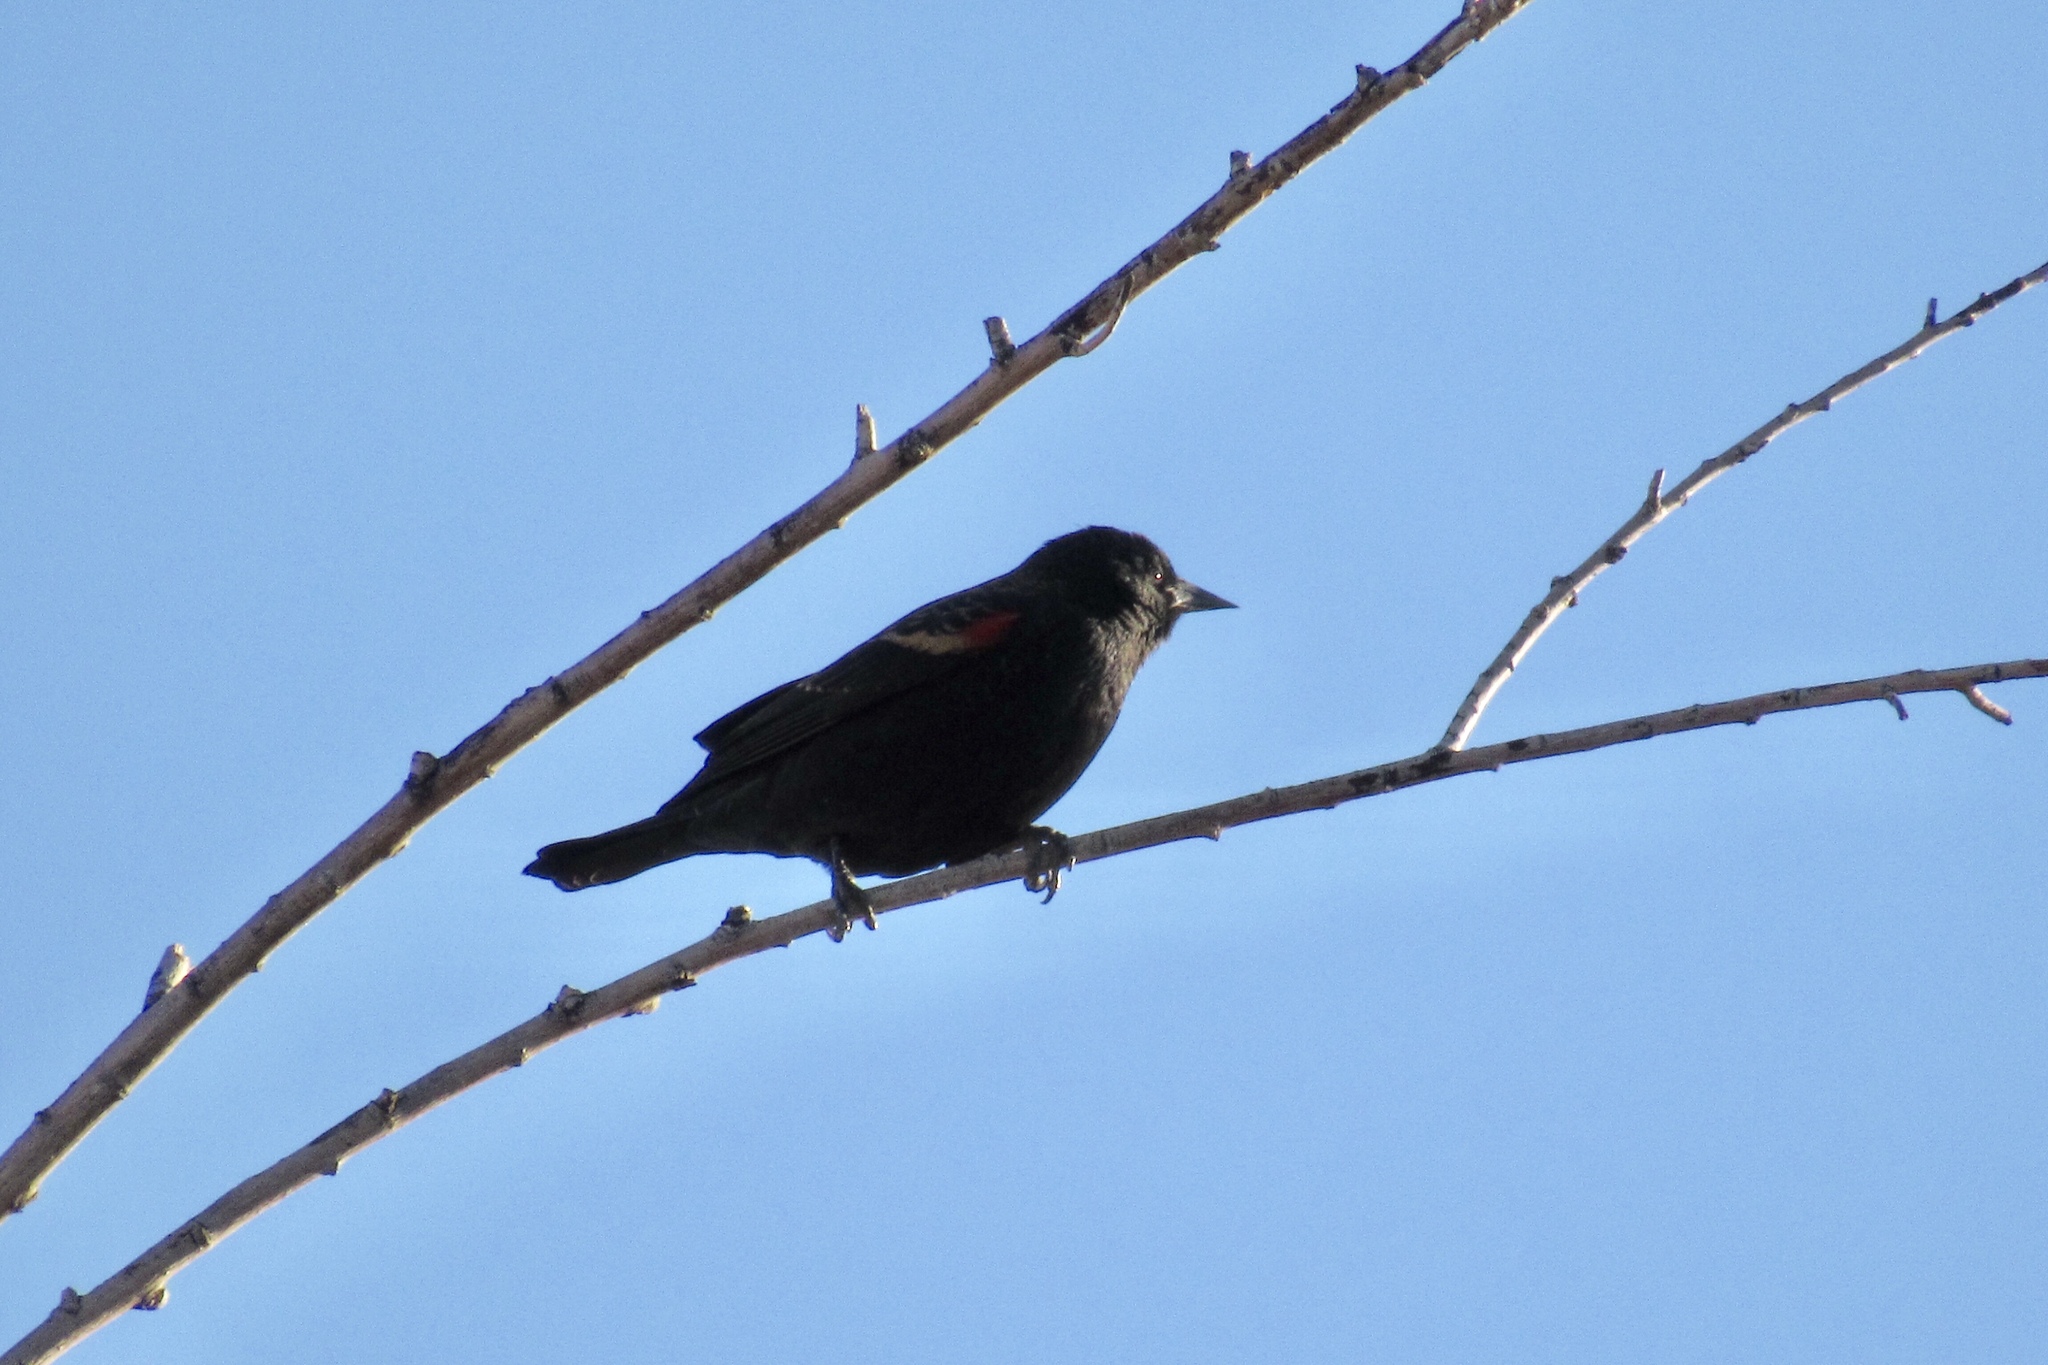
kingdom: Animalia
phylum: Chordata
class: Aves
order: Passeriformes
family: Icteridae
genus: Agelaius
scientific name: Agelaius phoeniceus
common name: Red-winged blackbird
